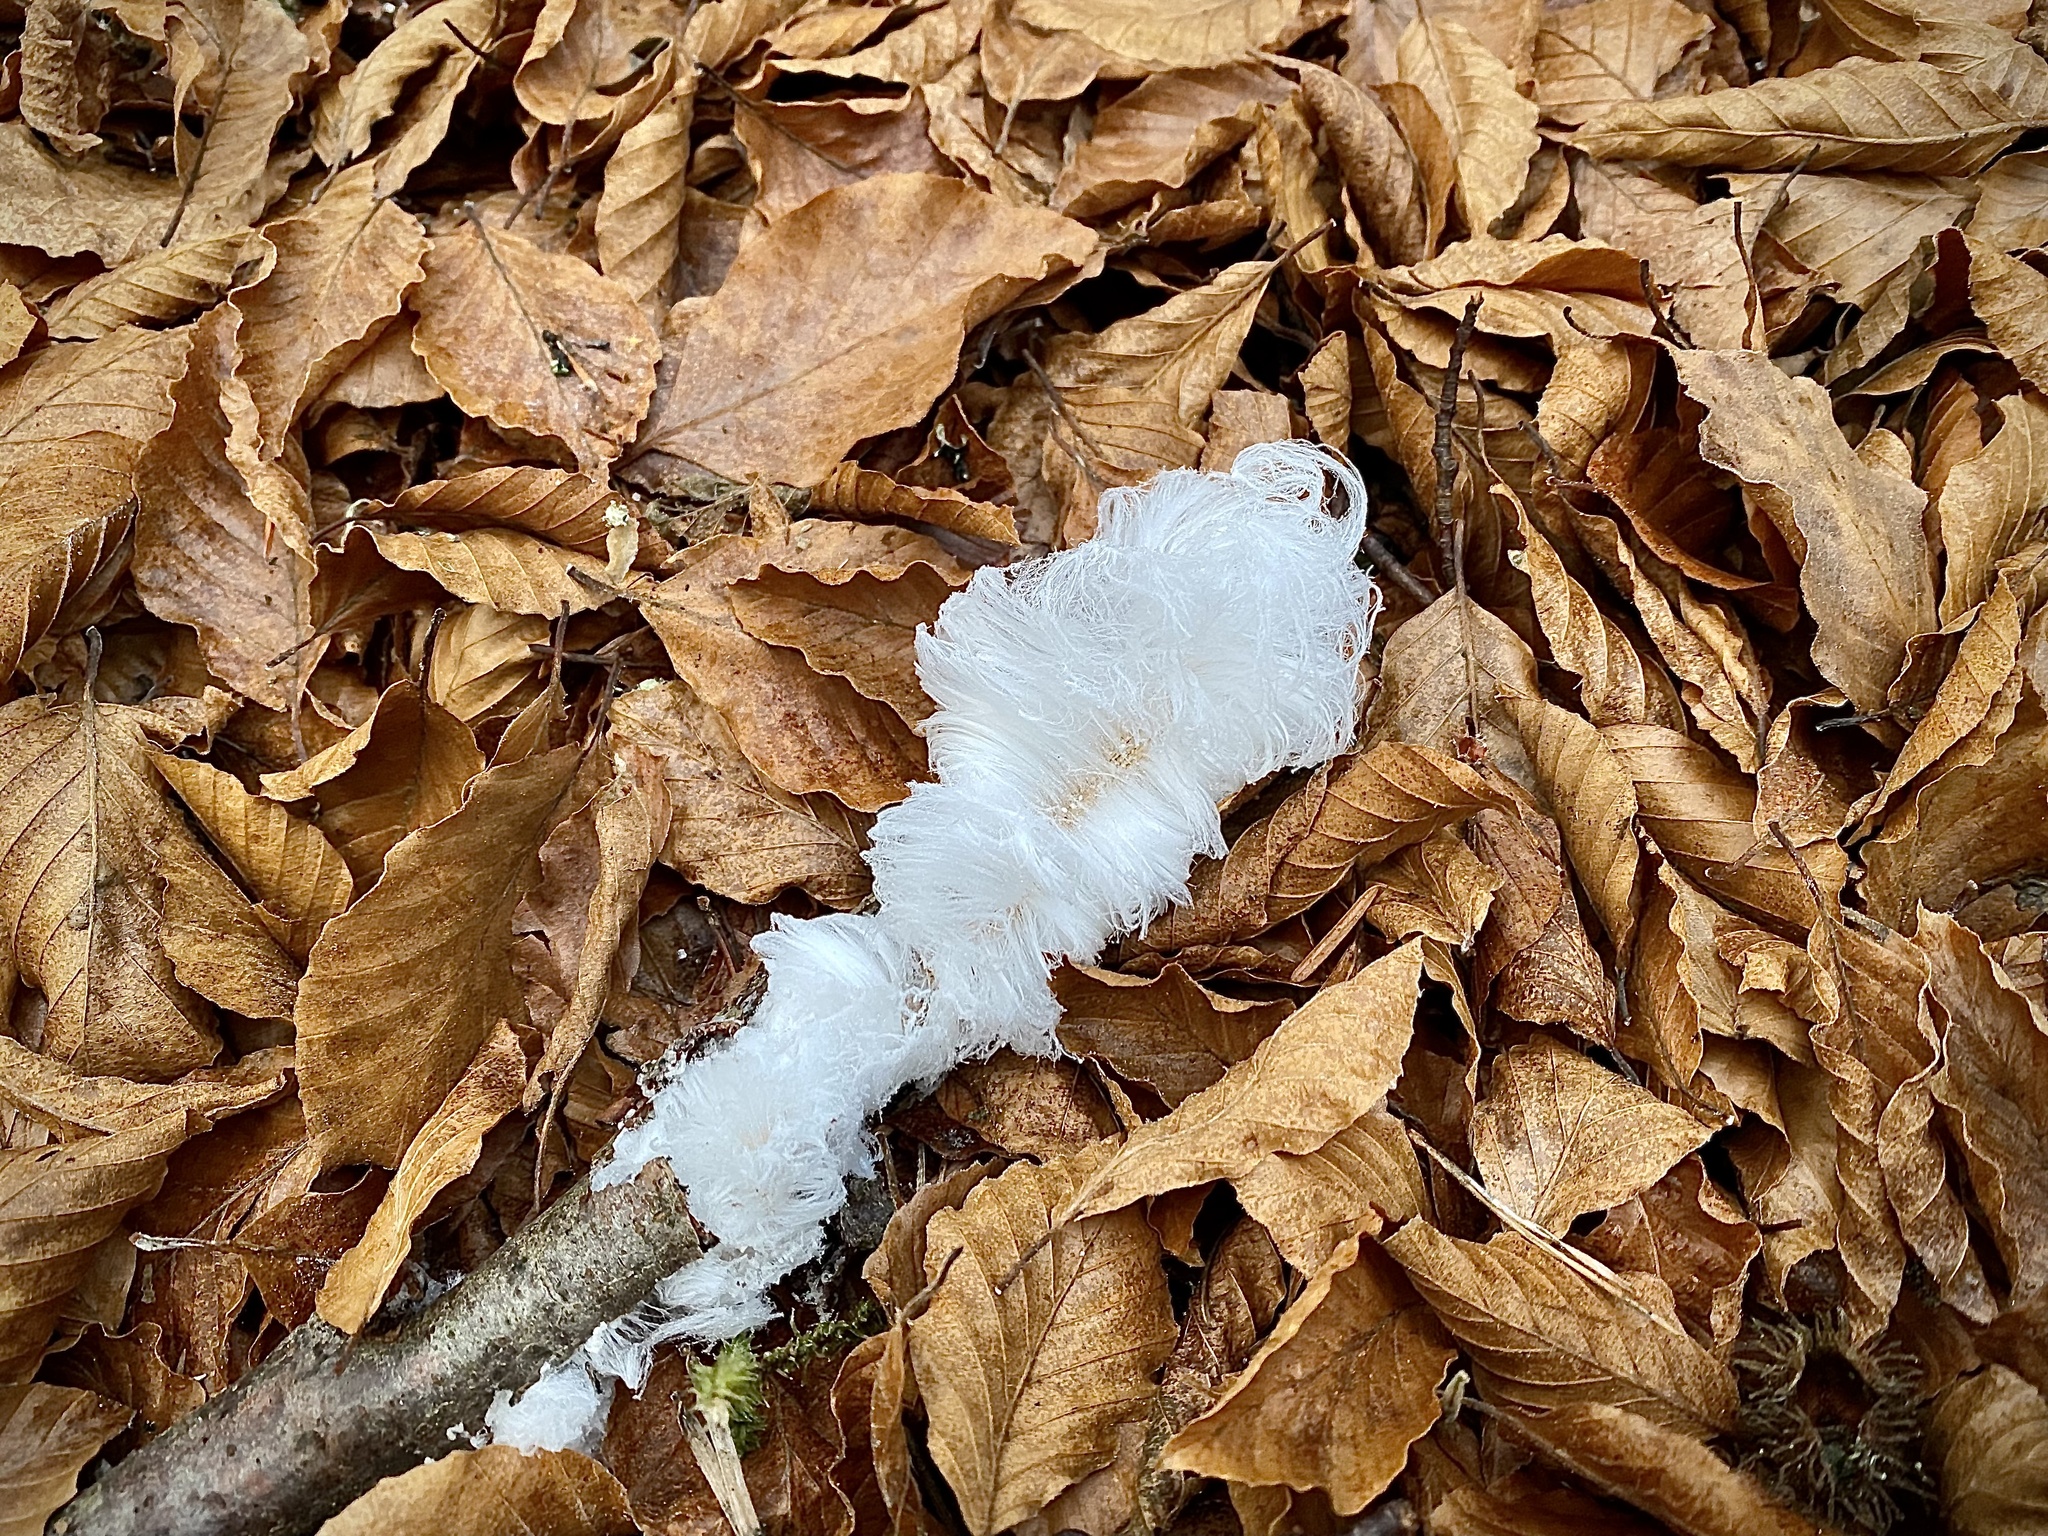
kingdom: Fungi
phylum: Basidiomycota
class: Agaricomycetes
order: Auriculariales
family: Auriculariaceae
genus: Exidiopsis
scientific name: Exidiopsis effusa
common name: Hair ice crust
